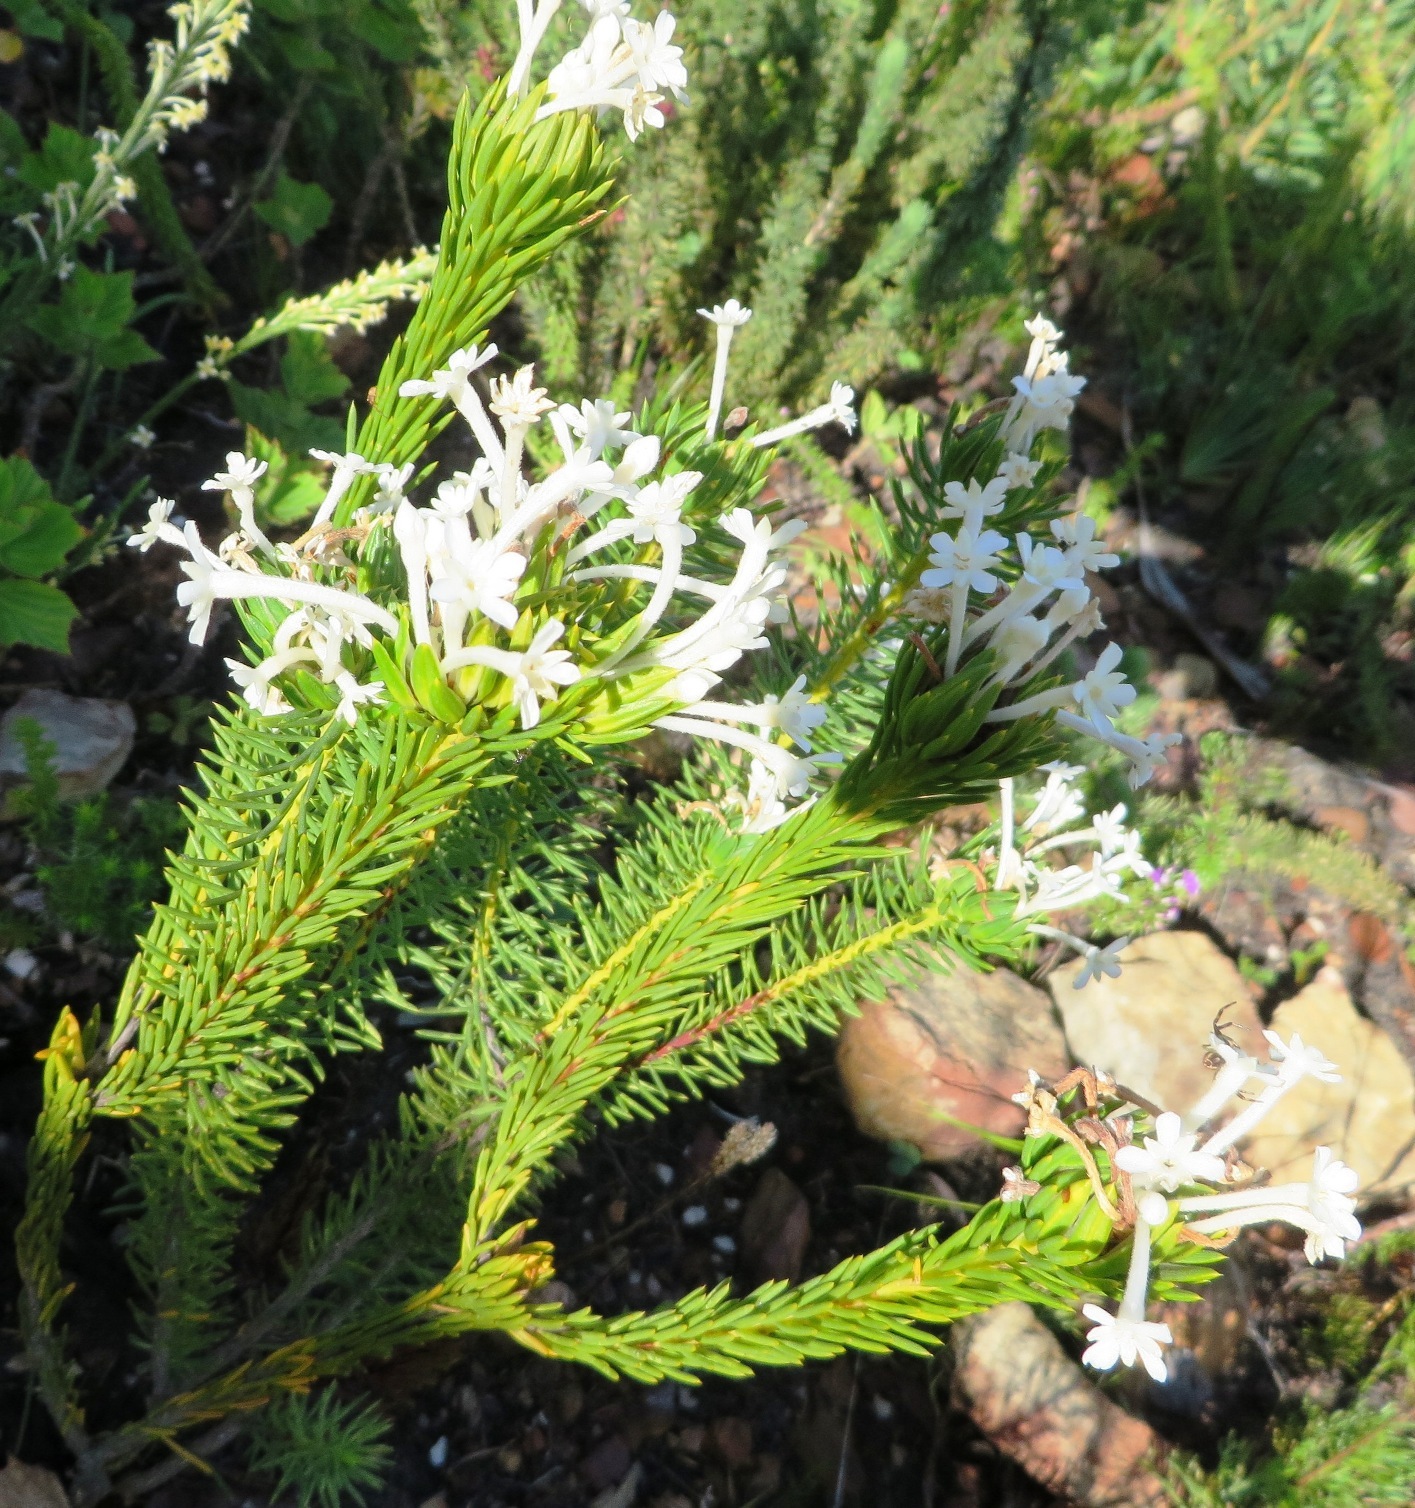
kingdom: Plantae
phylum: Tracheophyta
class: Magnoliopsida
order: Malvales
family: Thymelaeaceae
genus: Gnidia
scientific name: Gnidia pinifolia
